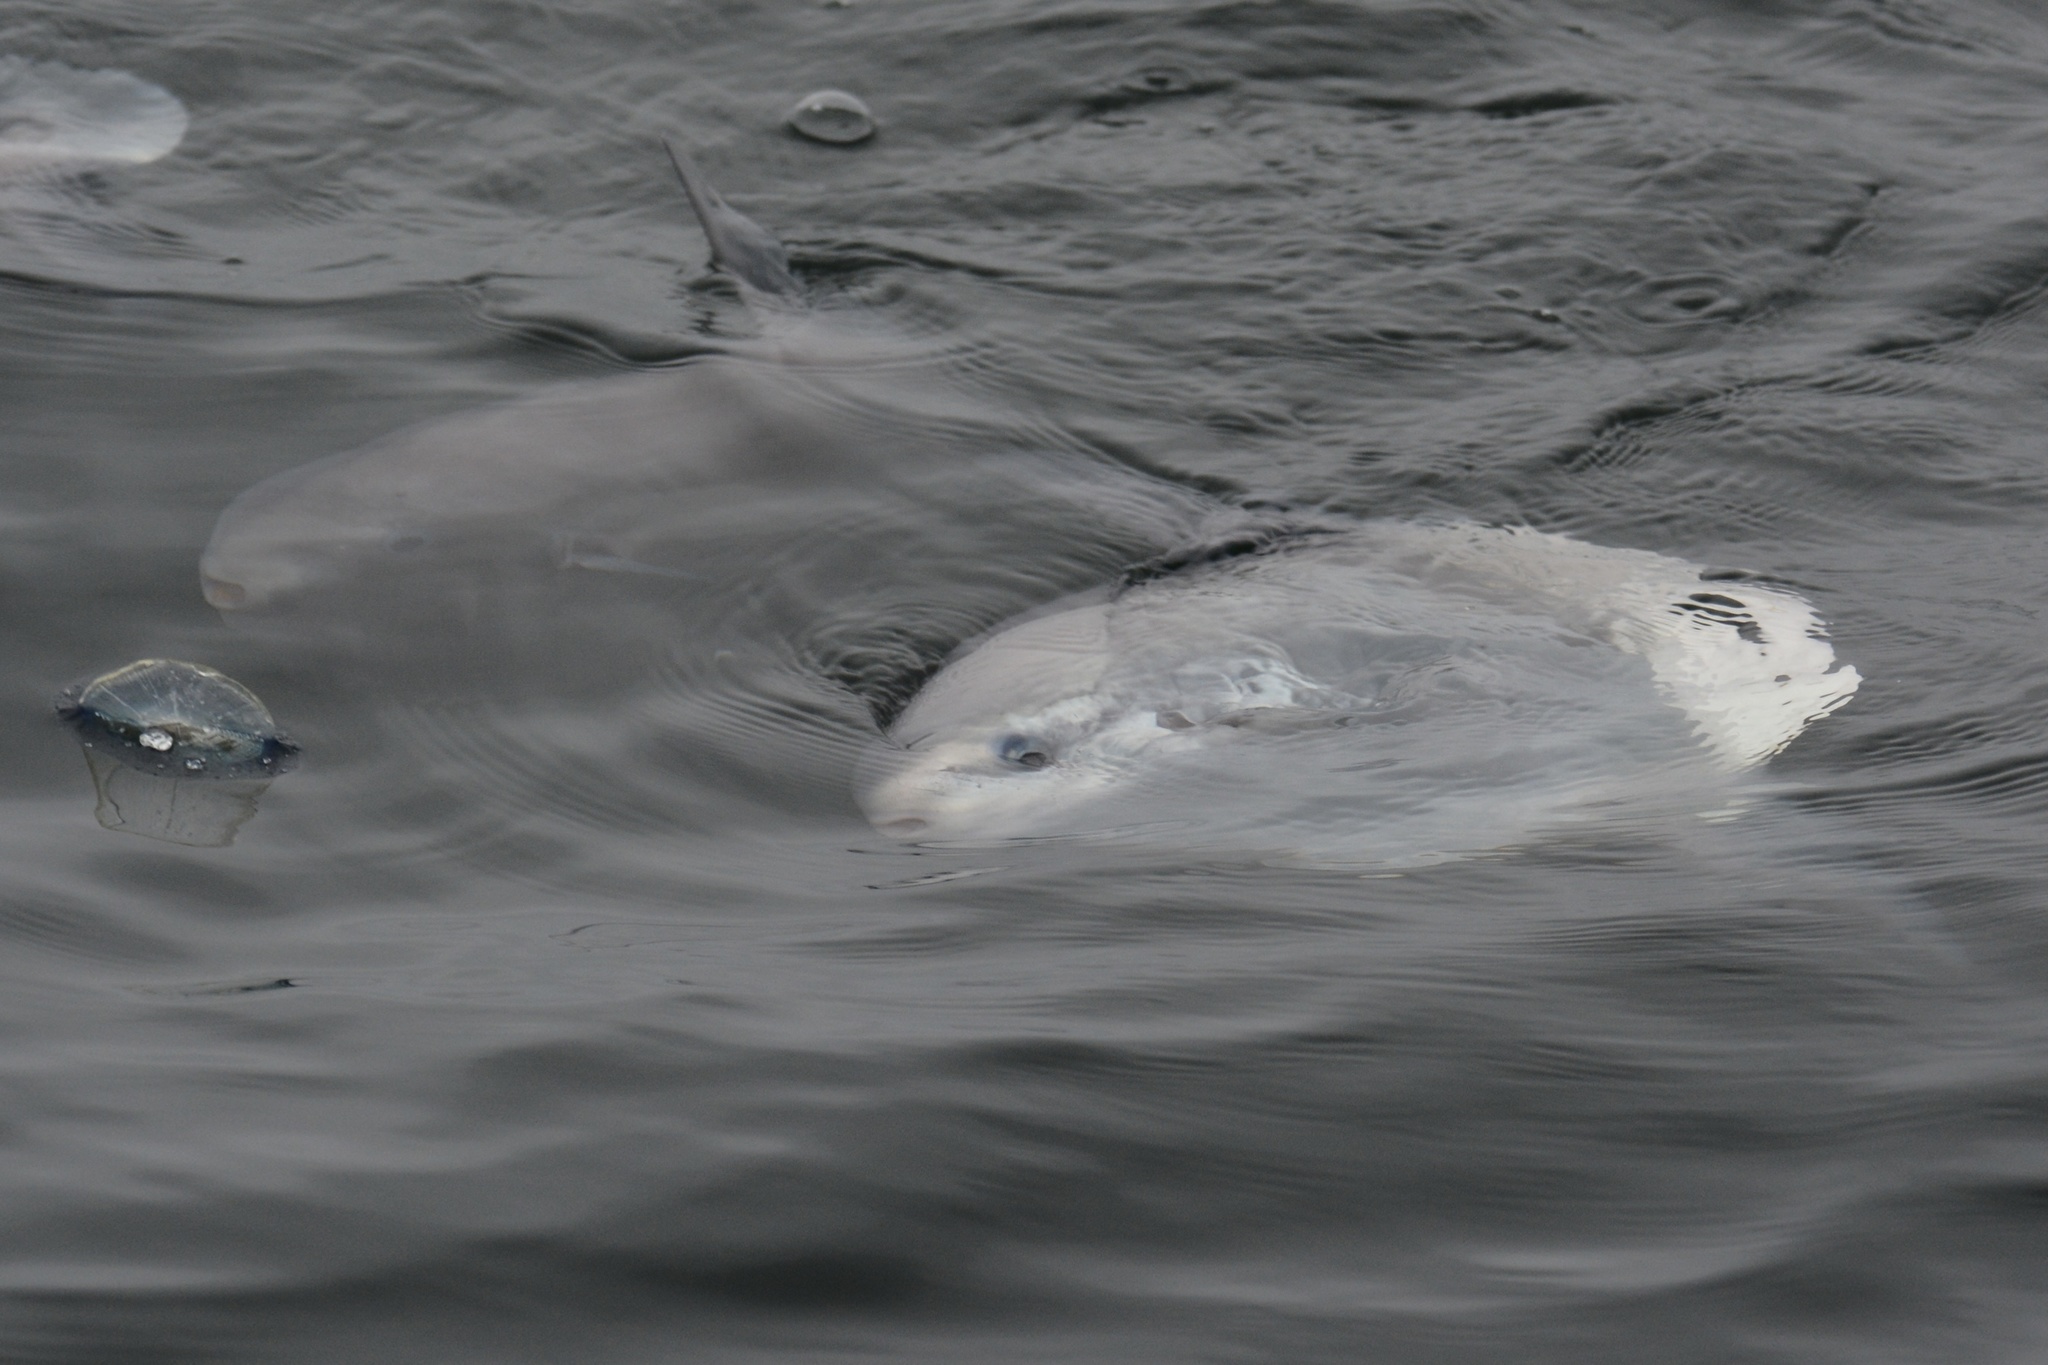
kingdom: Animalia
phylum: Chordata
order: Tetraodontiformes
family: Molidae
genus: Mola
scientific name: Mola mola
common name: Ocean sunfish
